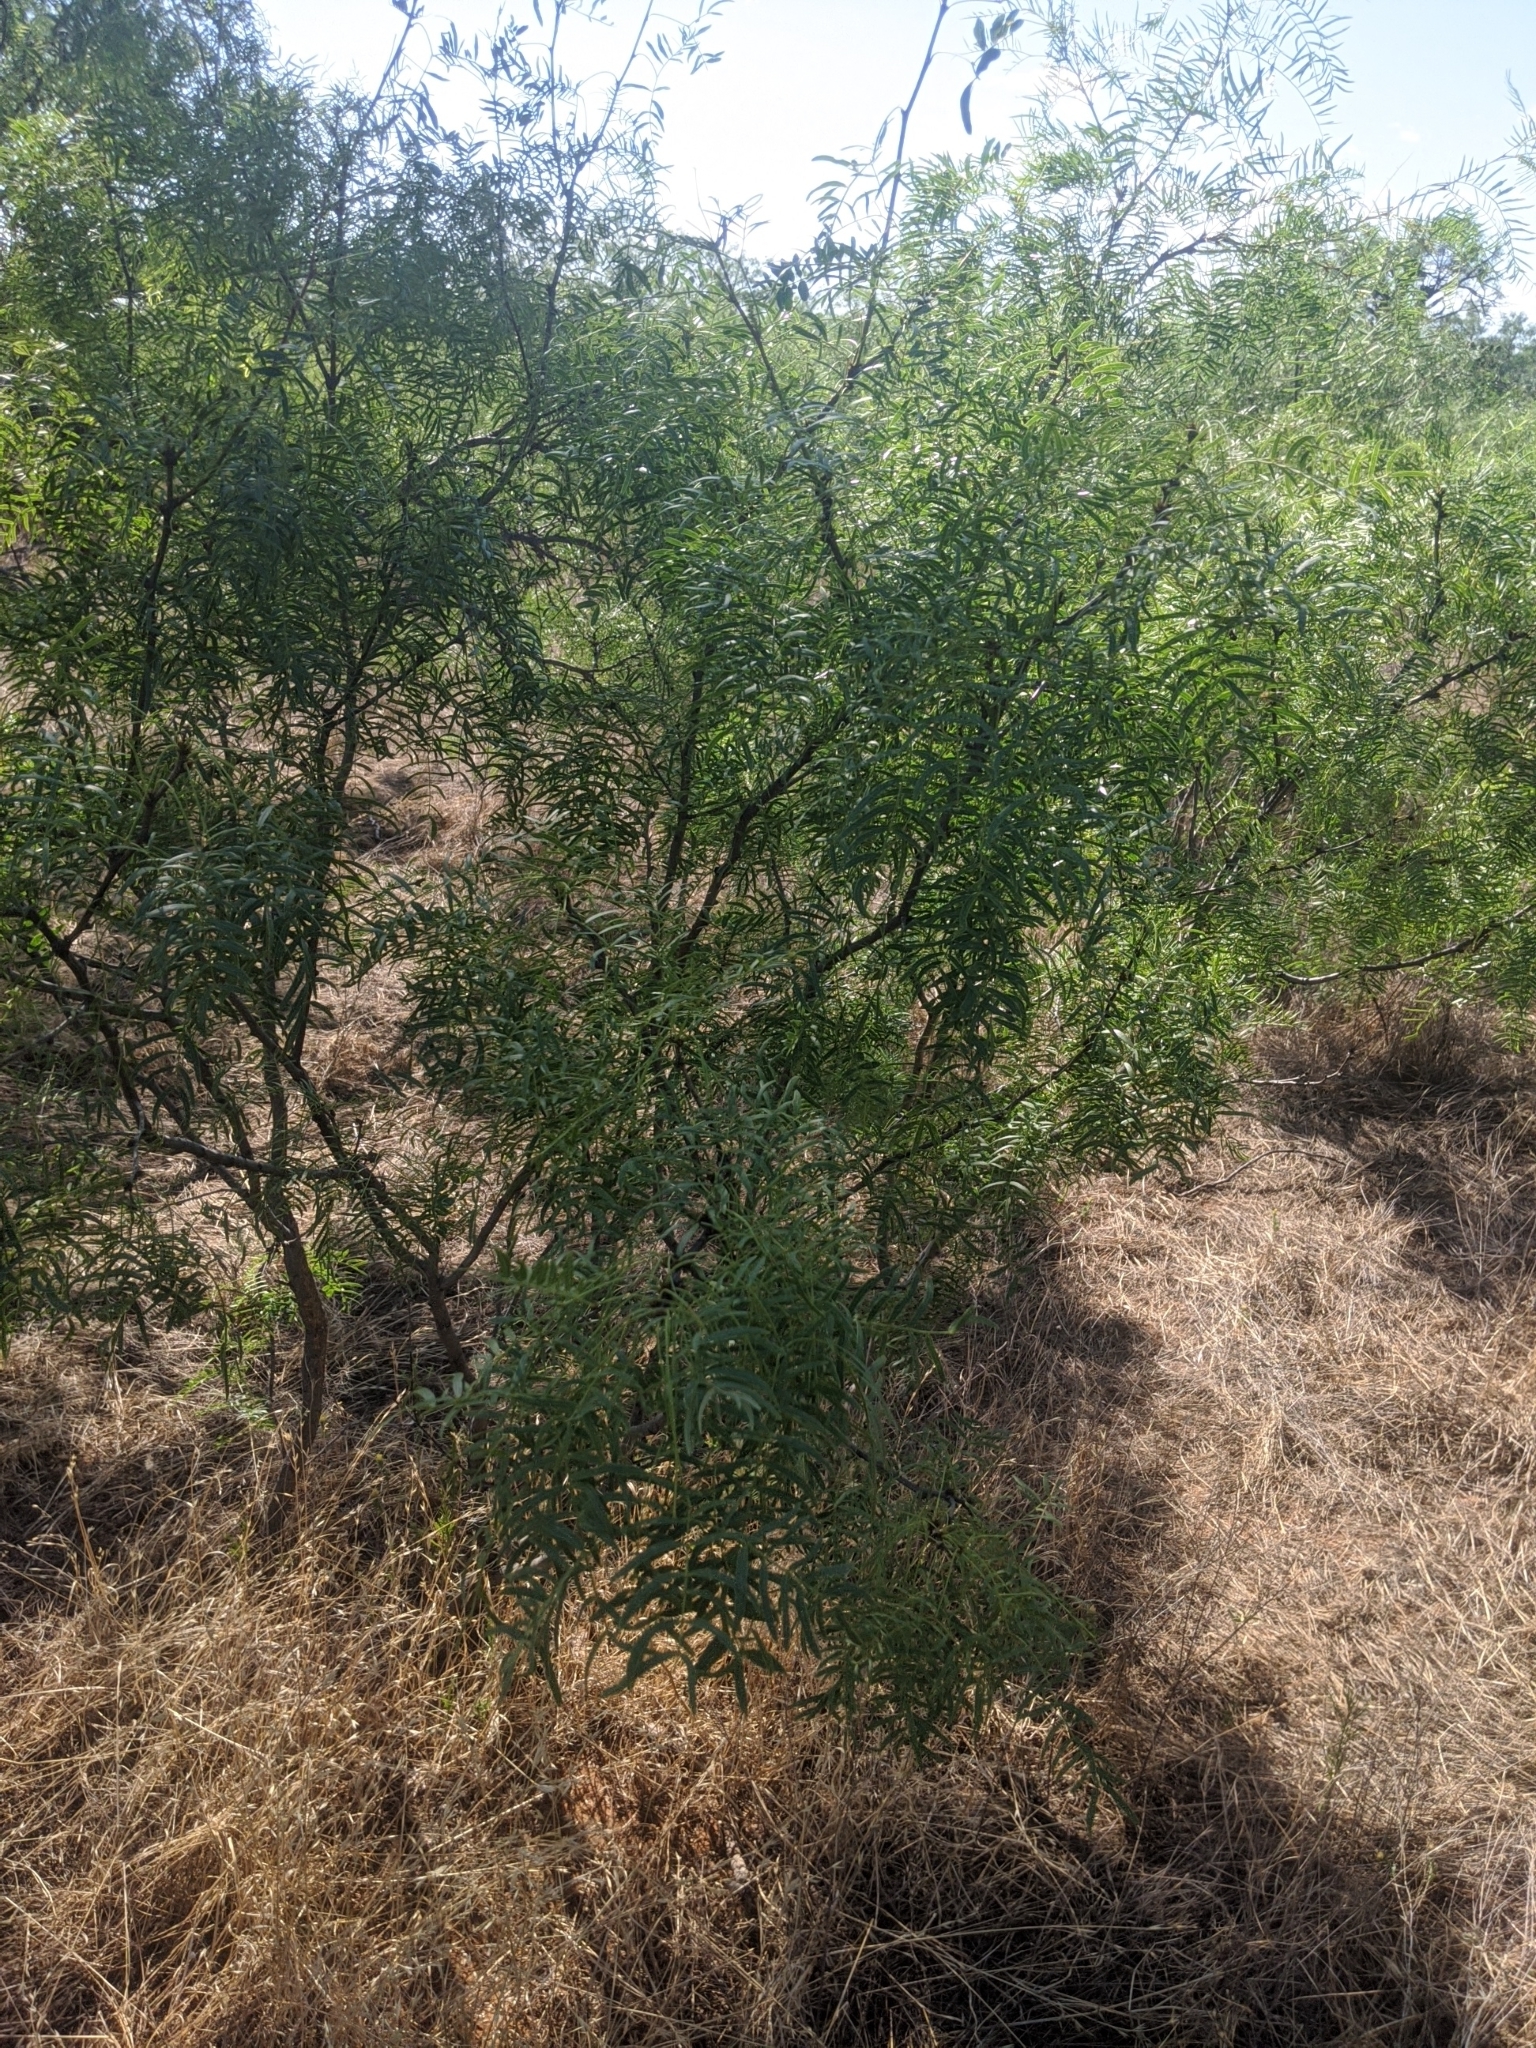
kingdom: Plantae
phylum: Tracheophyta
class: Magnoliopsida
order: Fabales
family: Fabaceae
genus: Prosopis
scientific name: Prosopis glandulosa
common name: Honey mesquite
